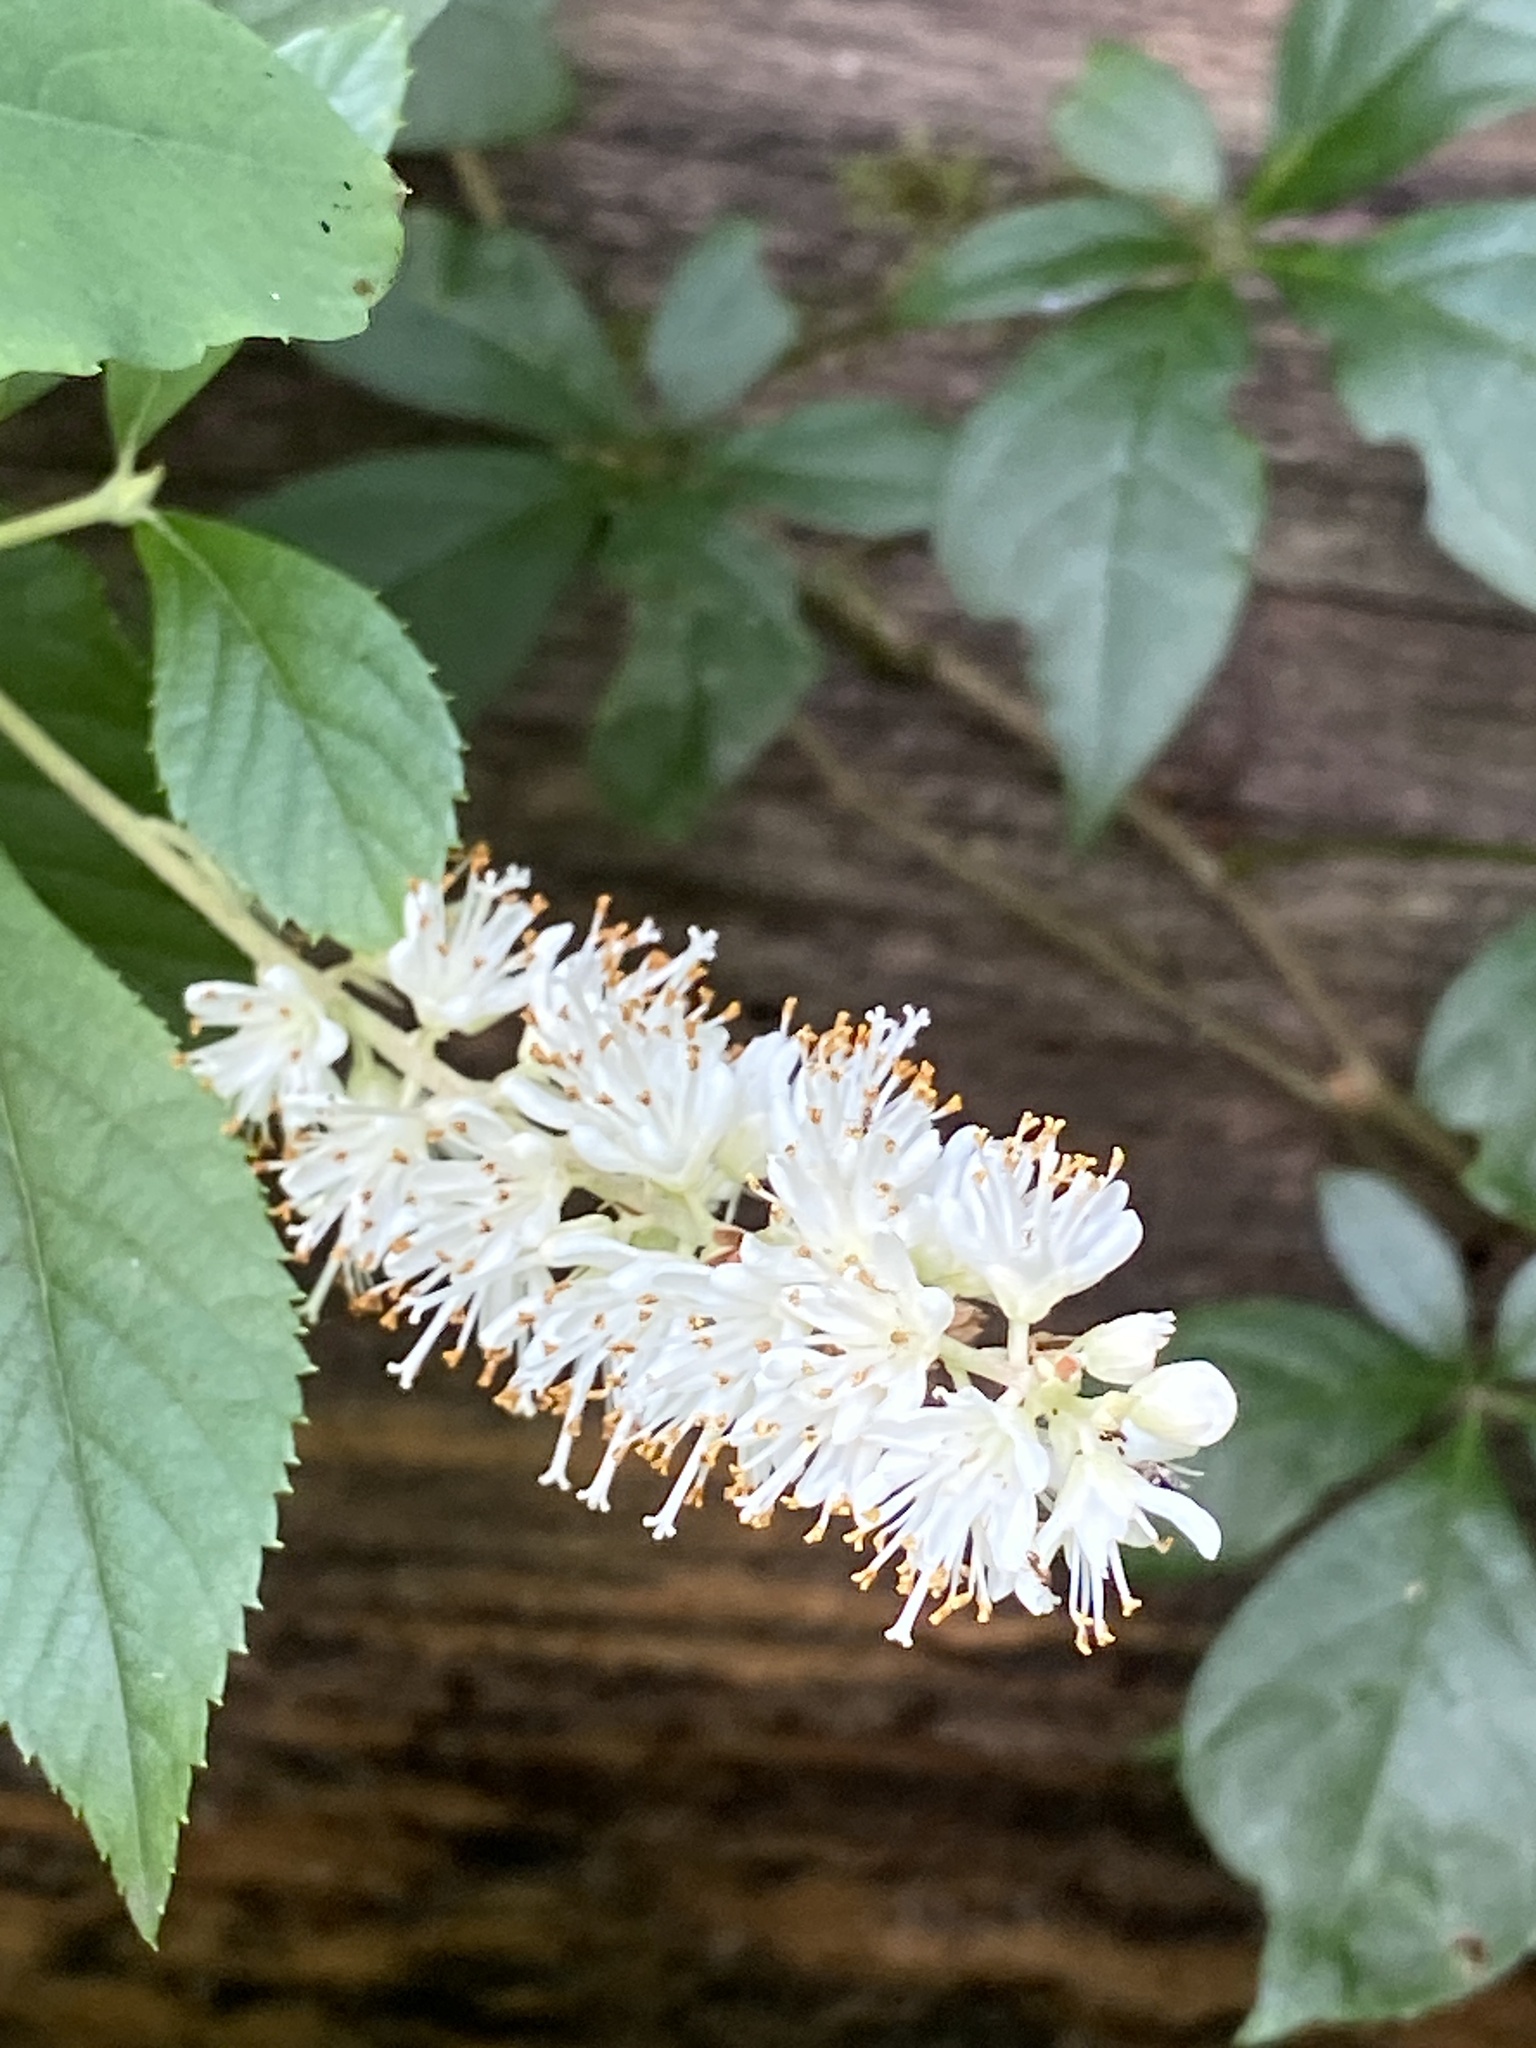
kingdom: Plantae
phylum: Tracheophyta
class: Magnoliopsida
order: Ericales
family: Clethraceae
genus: Clethra
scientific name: Clethra alnifolia
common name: Sweet pepperbush
